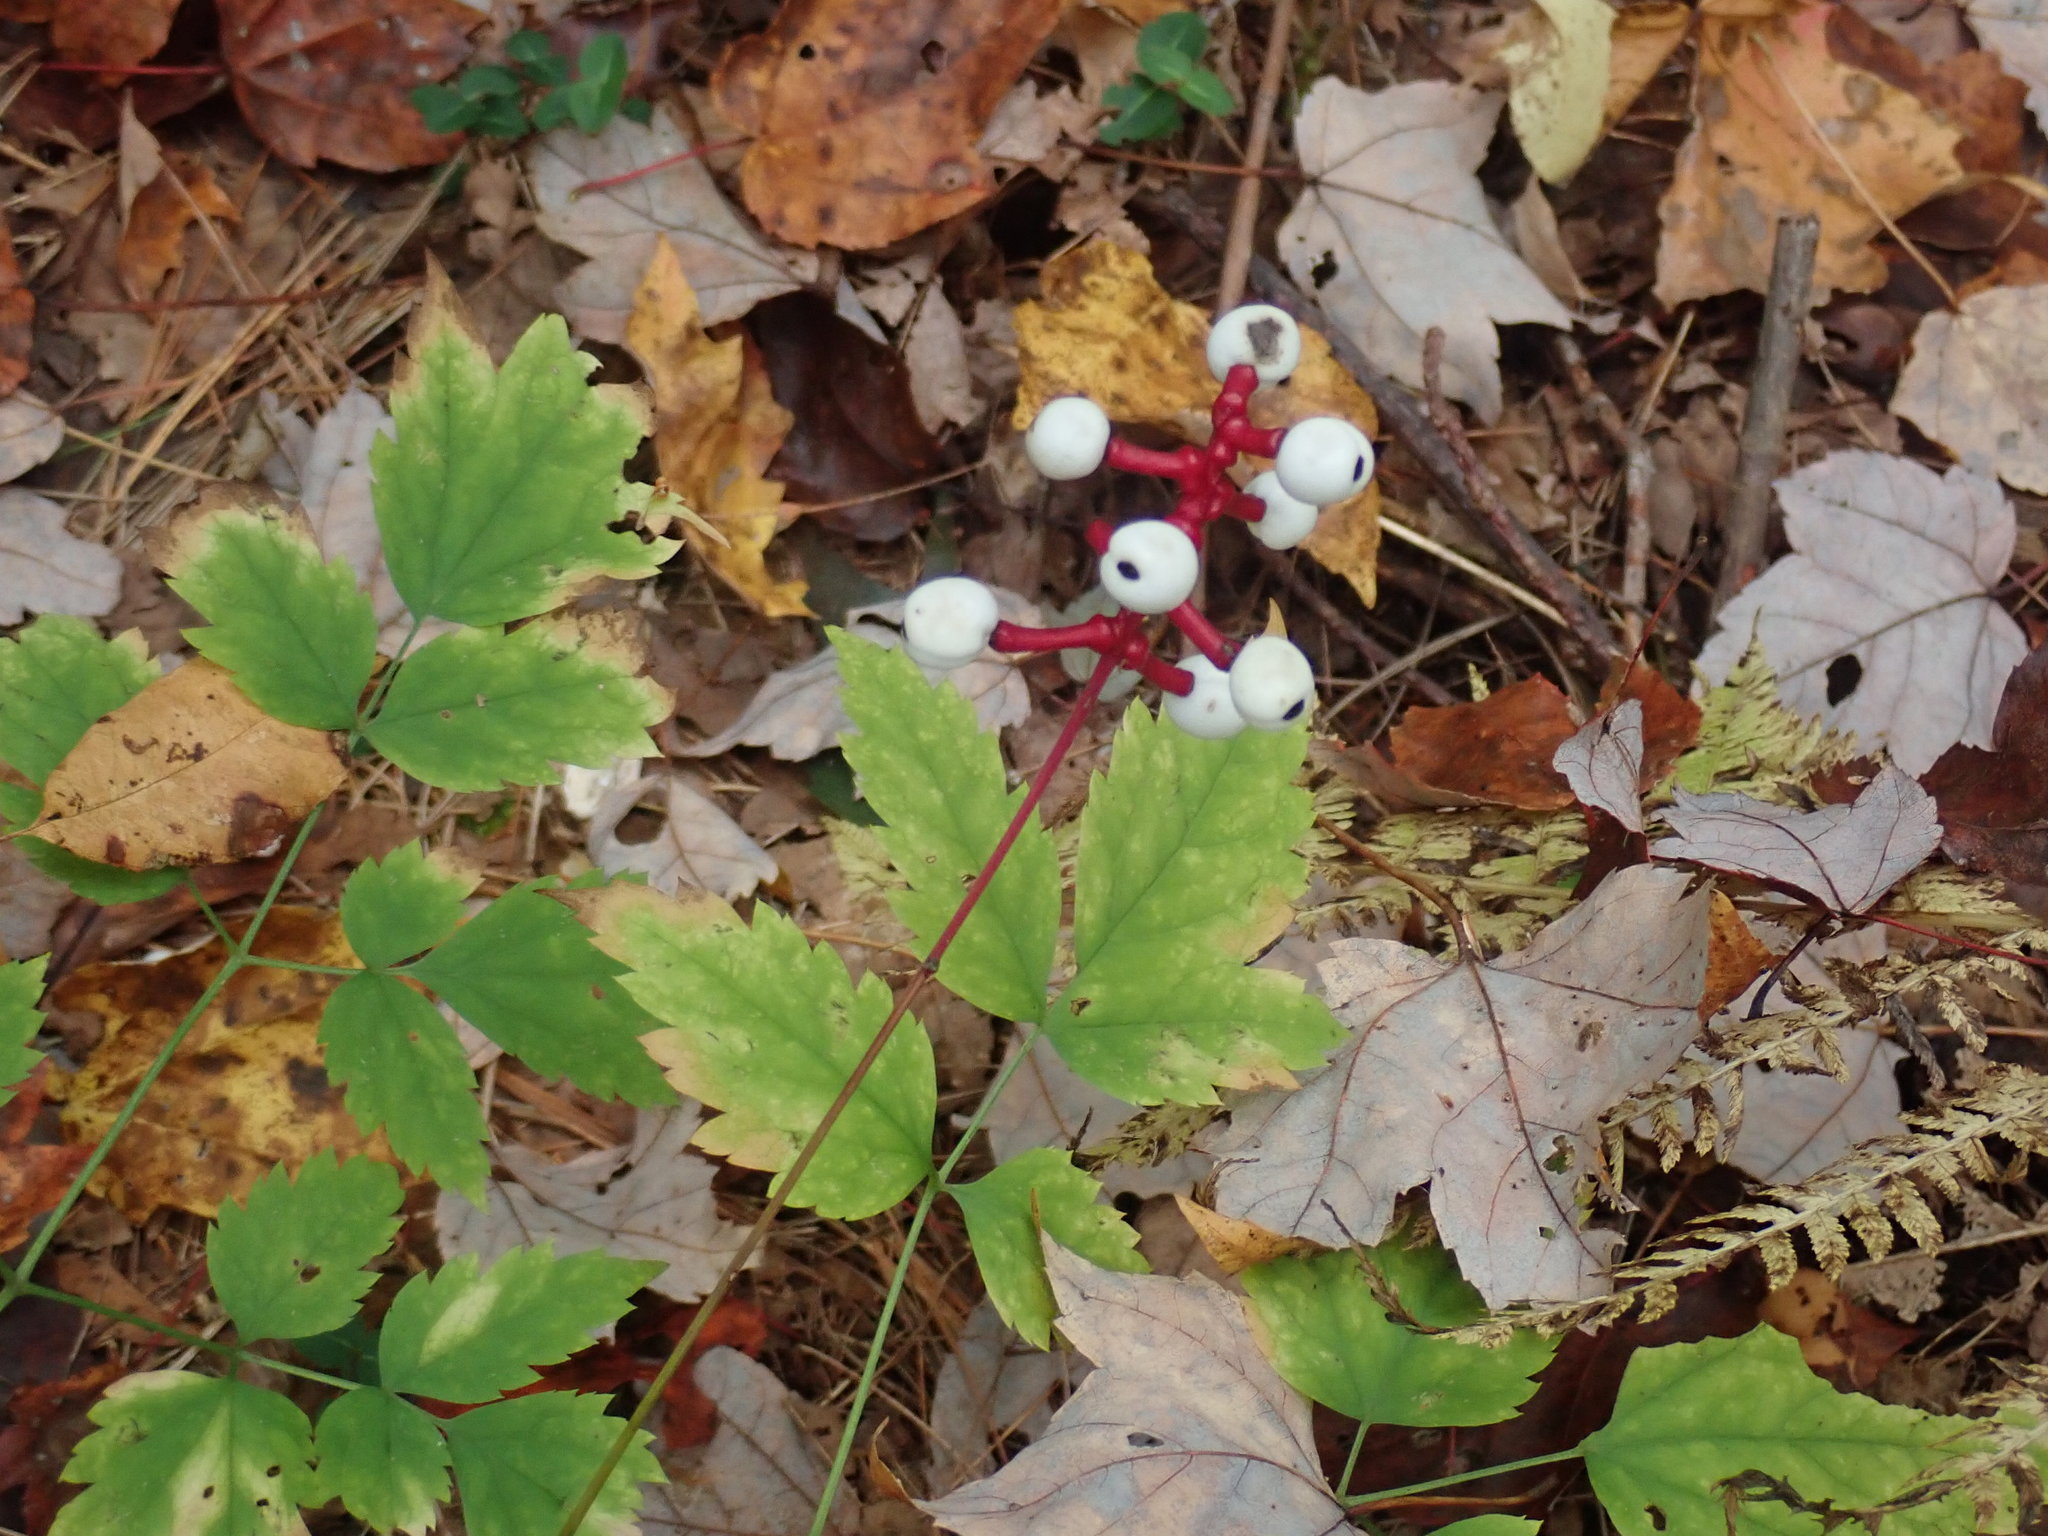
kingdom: Plantae
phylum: Tracheophyta
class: Magnoliopsida
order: Ranunculales
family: Ranunculaceae
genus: Actaea
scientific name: Actaea pachypoda
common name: Doll's-eyes
